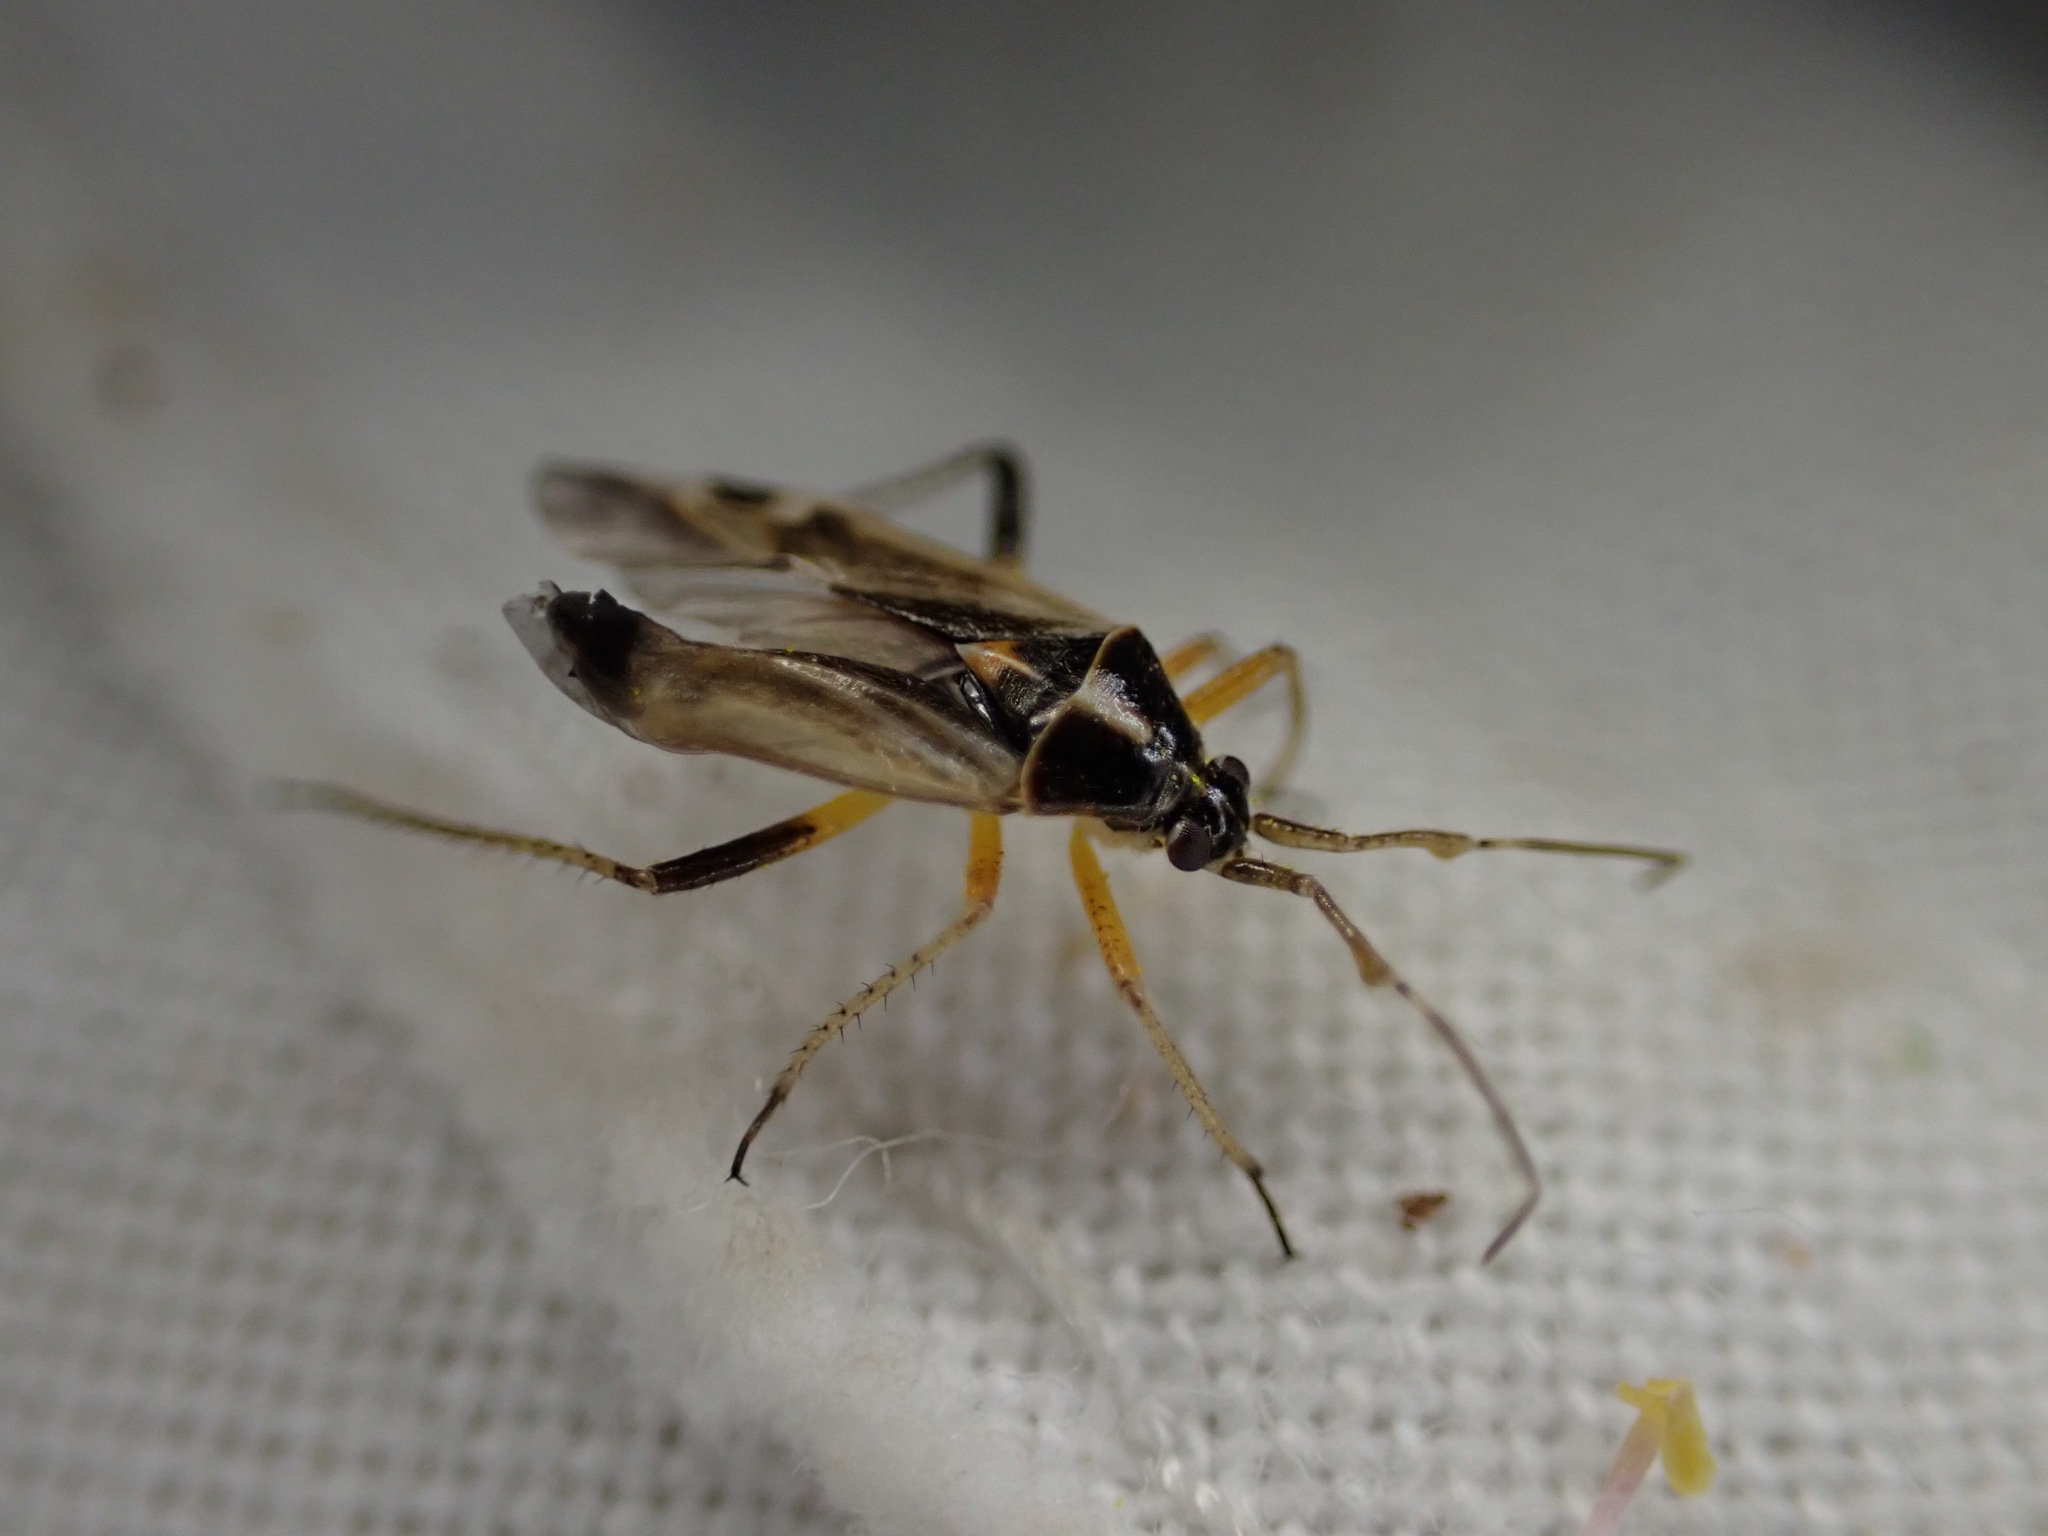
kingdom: Animalia
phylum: Arthropoda
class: Insecta
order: Hemiptera
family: Miridae
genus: Harpocera
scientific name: Harpocera thoracica
